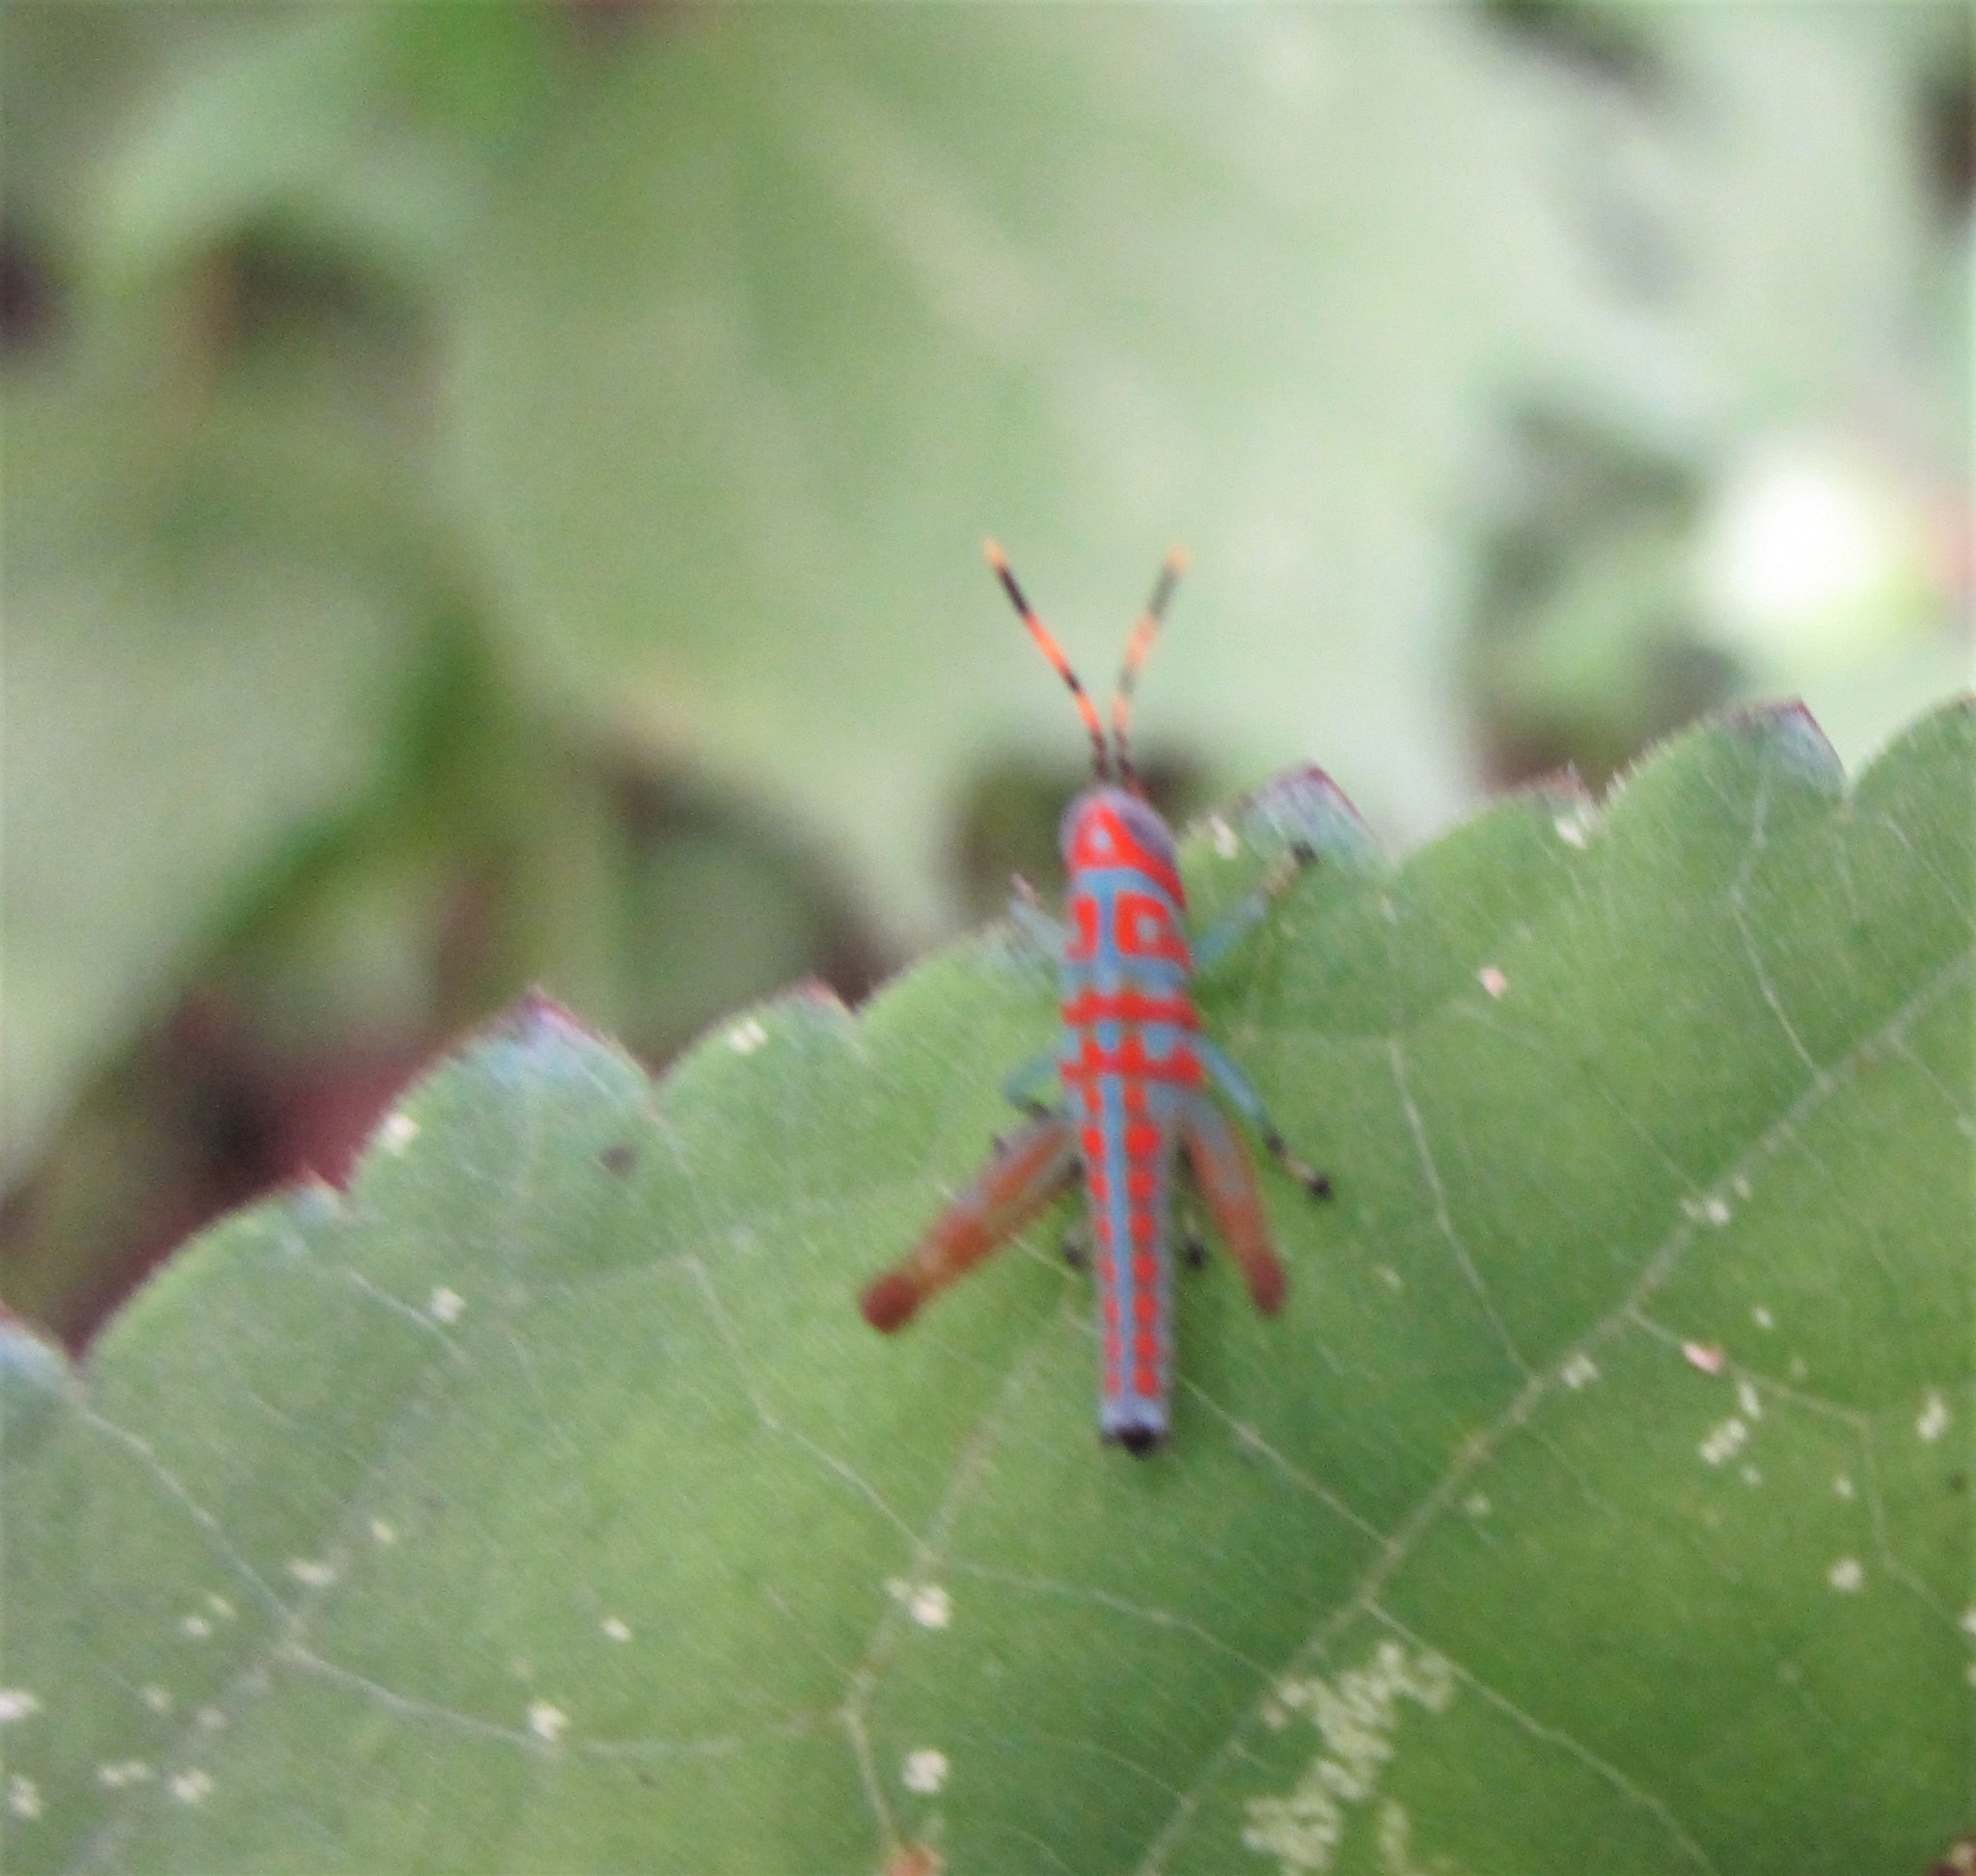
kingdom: Animalia
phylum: Arthropoda
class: Insecta
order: Orthoptera
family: Acrididae
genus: Pirithoicus
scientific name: Pirithoicus ophthalmicus
